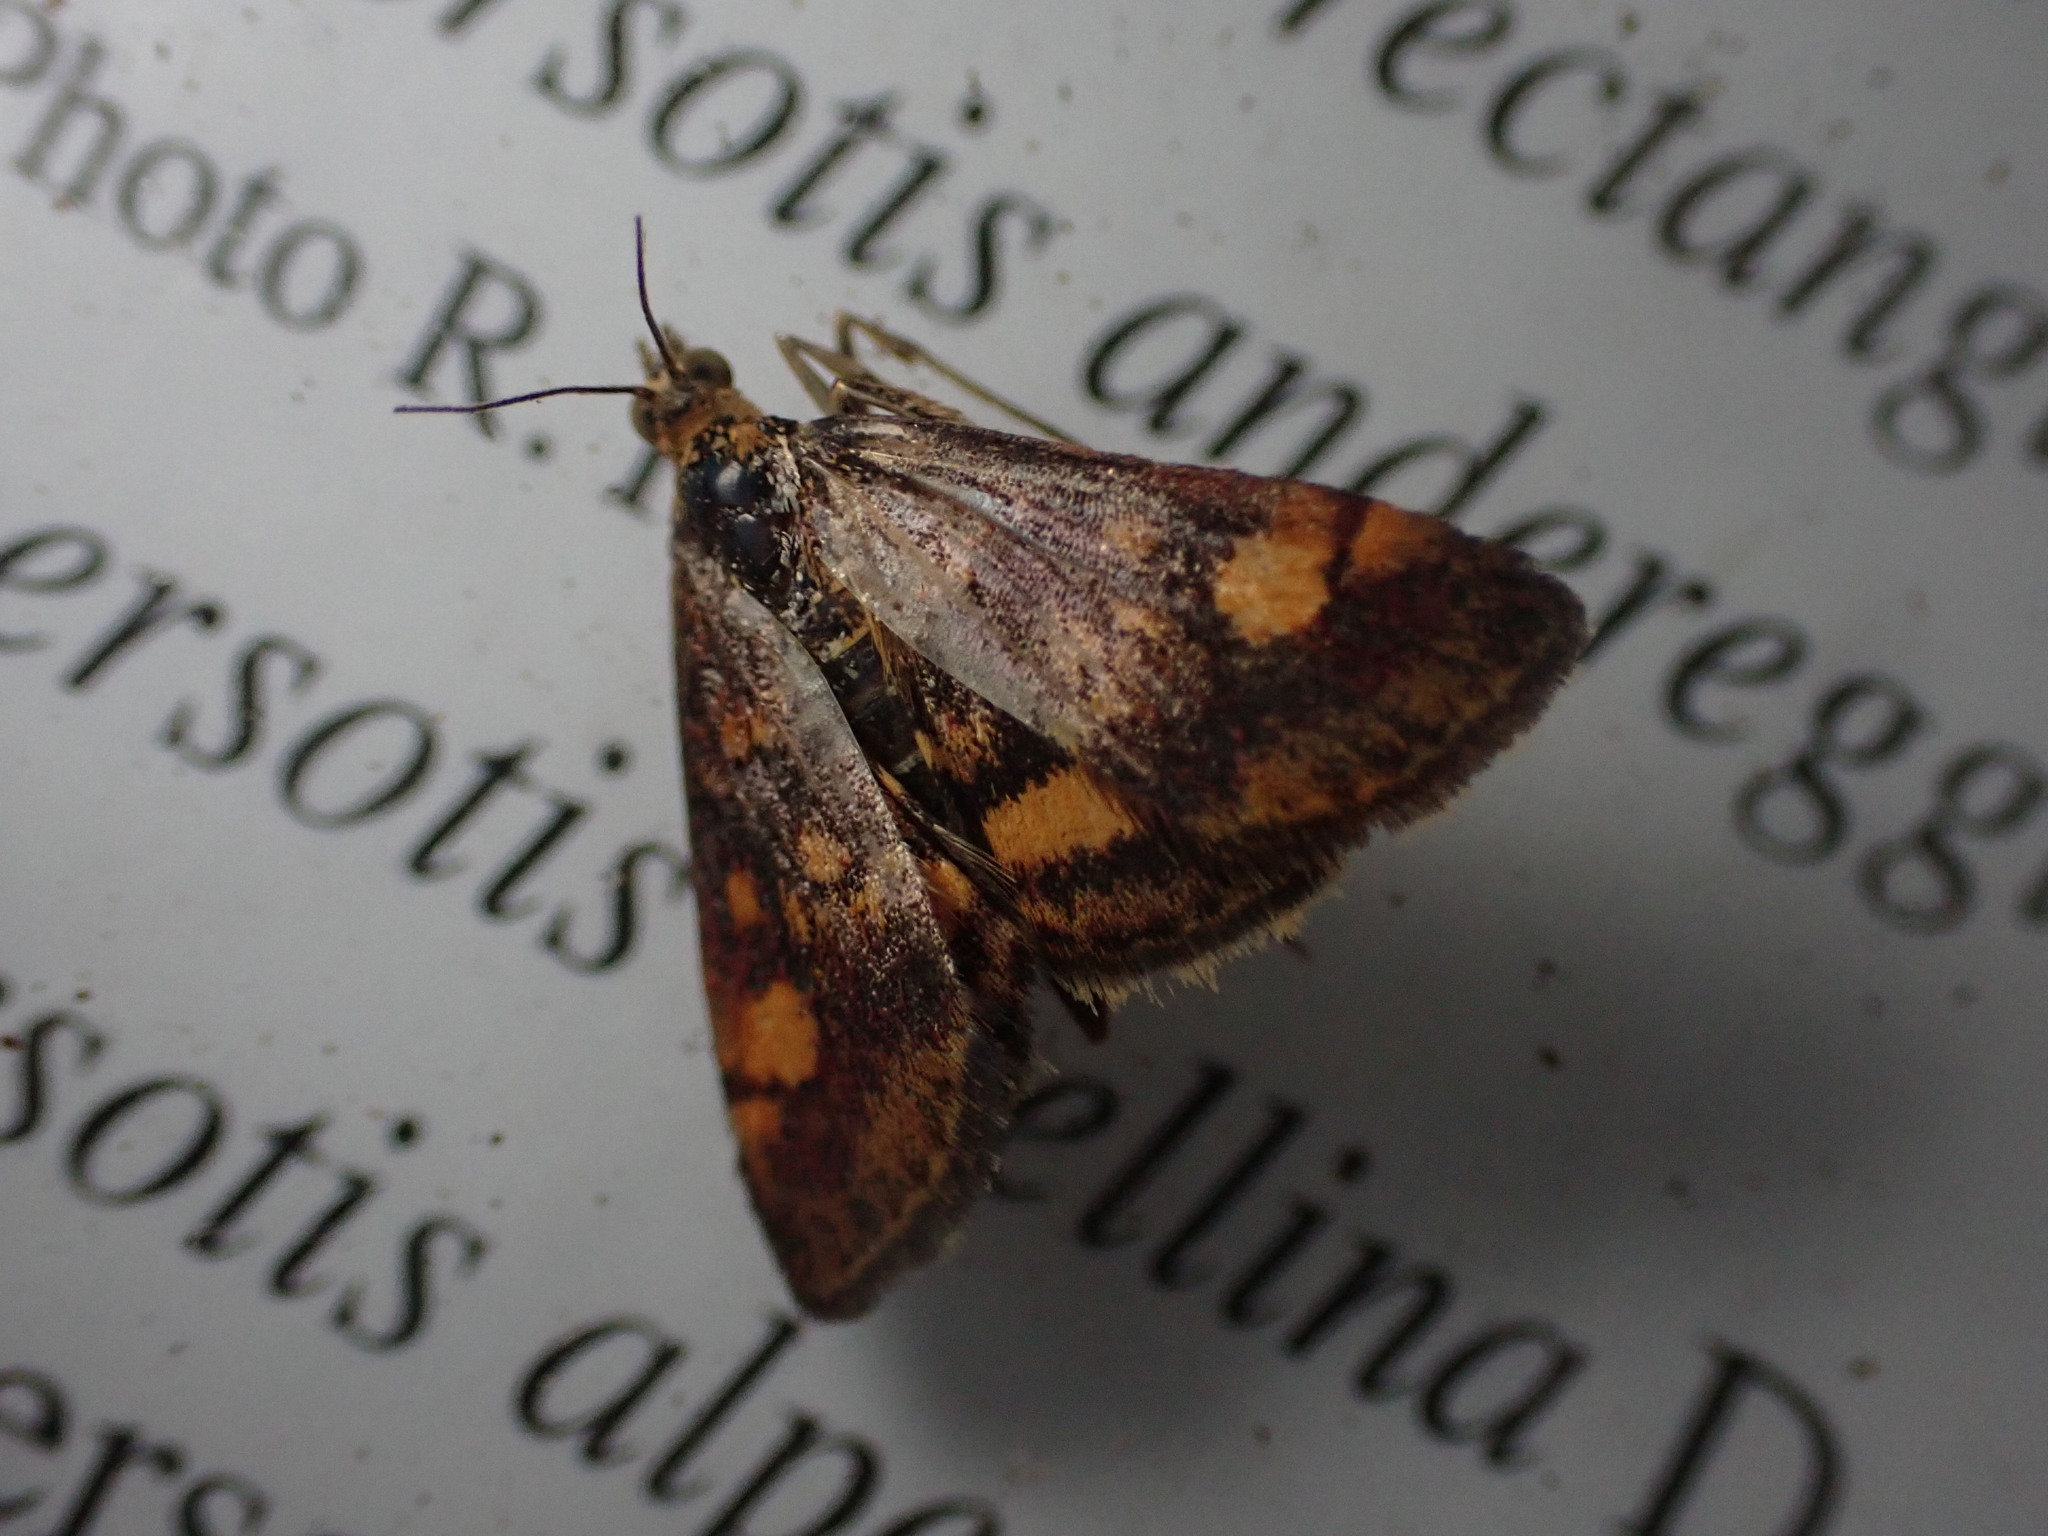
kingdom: Animalia
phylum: Arthropoda
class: Insecta
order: Lepidoptera
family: Crambidae
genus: Pyrausta
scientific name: Pyrausta aurata
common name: Small purple & gold
